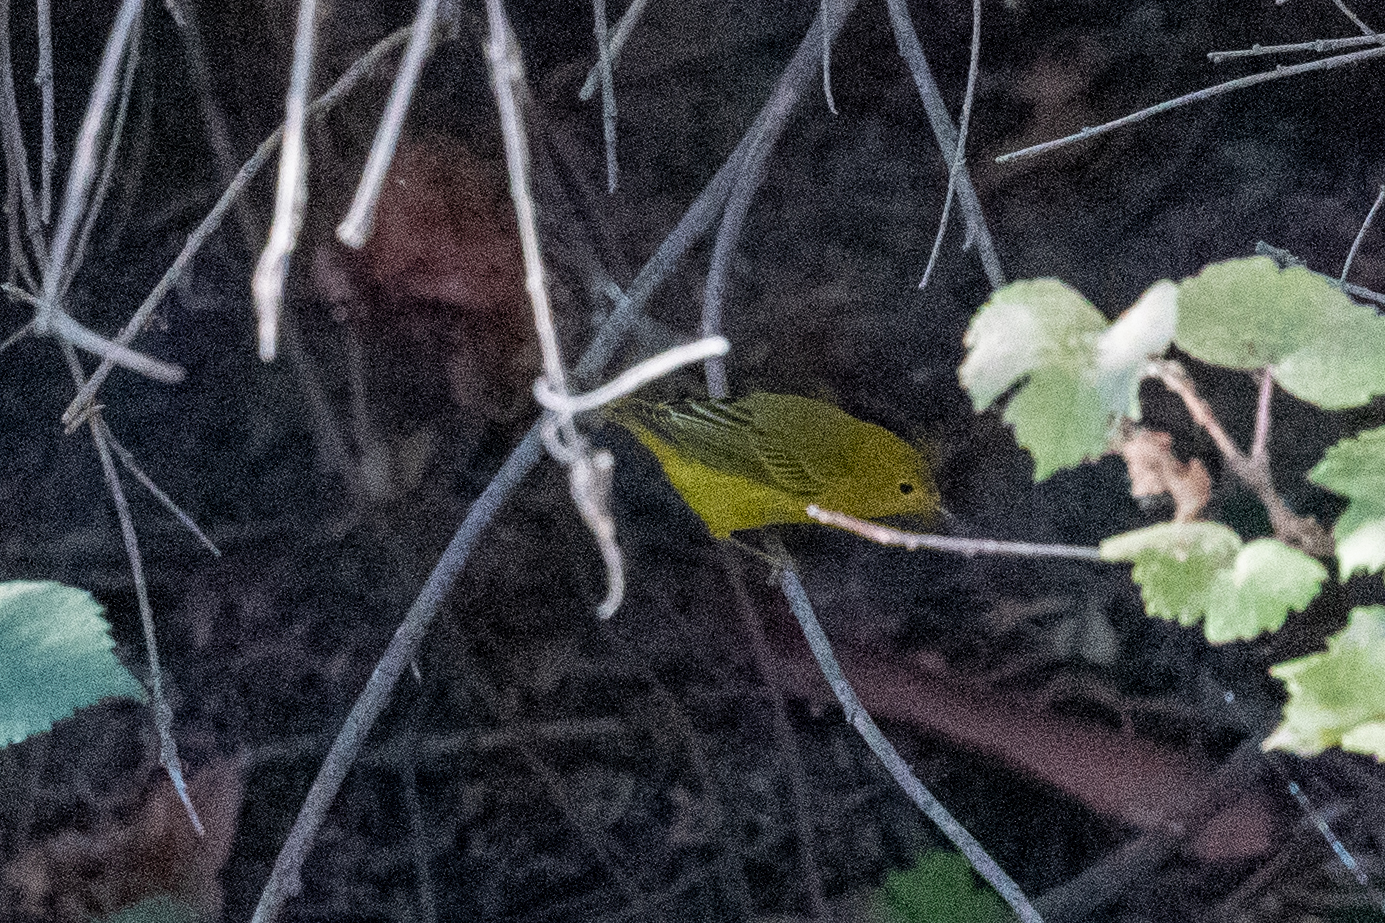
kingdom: Animalia
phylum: Chordata
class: Aves
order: Passeriformes
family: Parulidae
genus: Setophaga
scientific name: Setophaga petechia
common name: Yellow warbler
